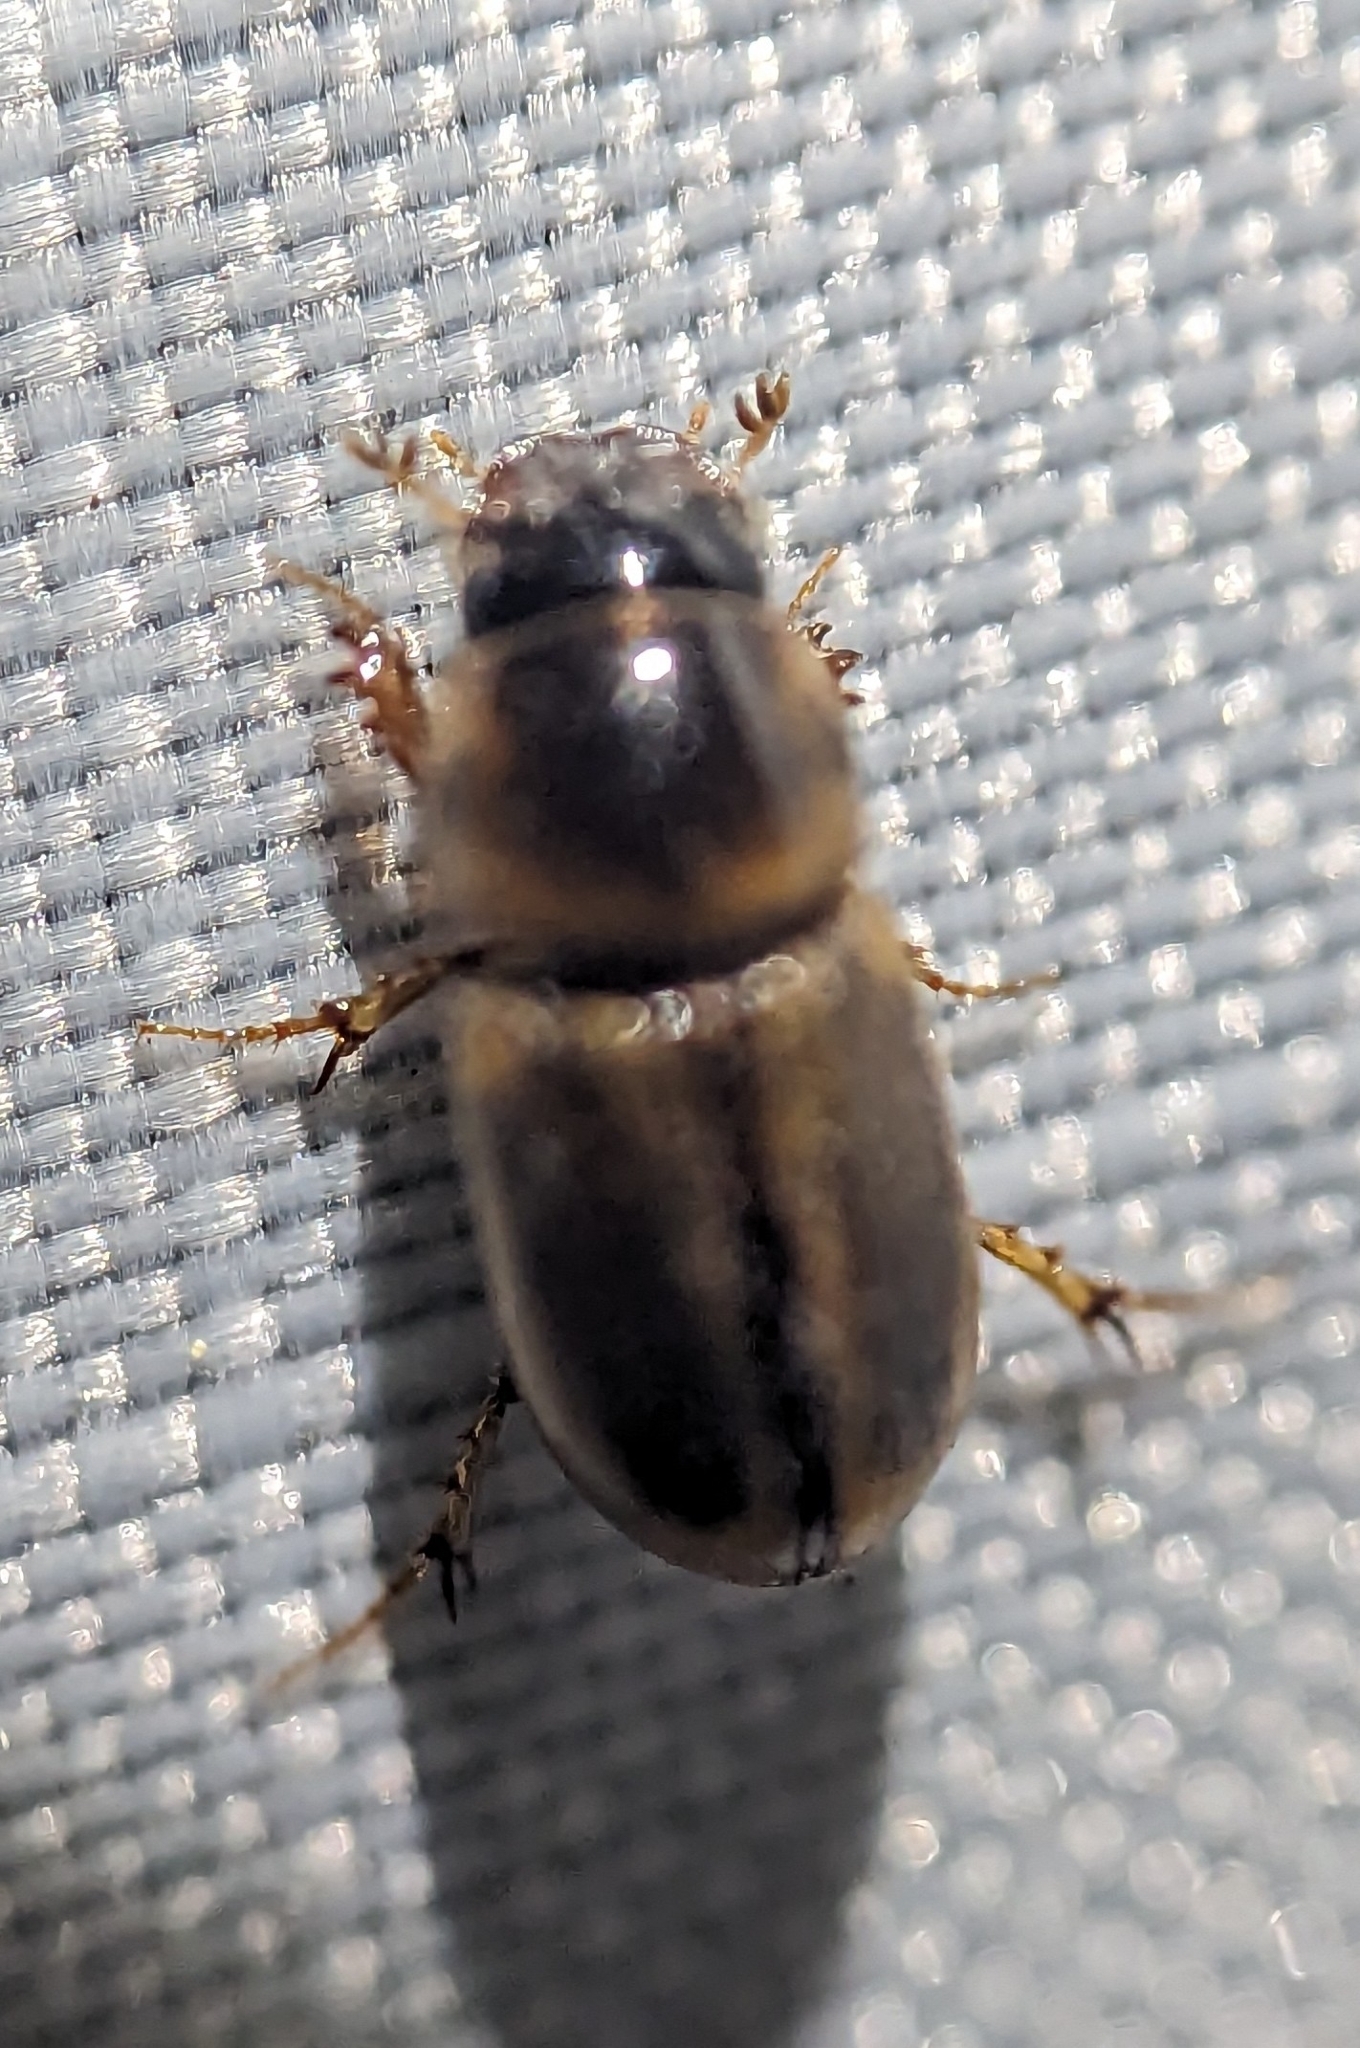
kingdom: Animalia
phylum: Arthropoda
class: Insecta
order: Coleoptera
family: Scarabaeidae
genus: Labarrus
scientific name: Labarrus lividus
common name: Scarab beetle
